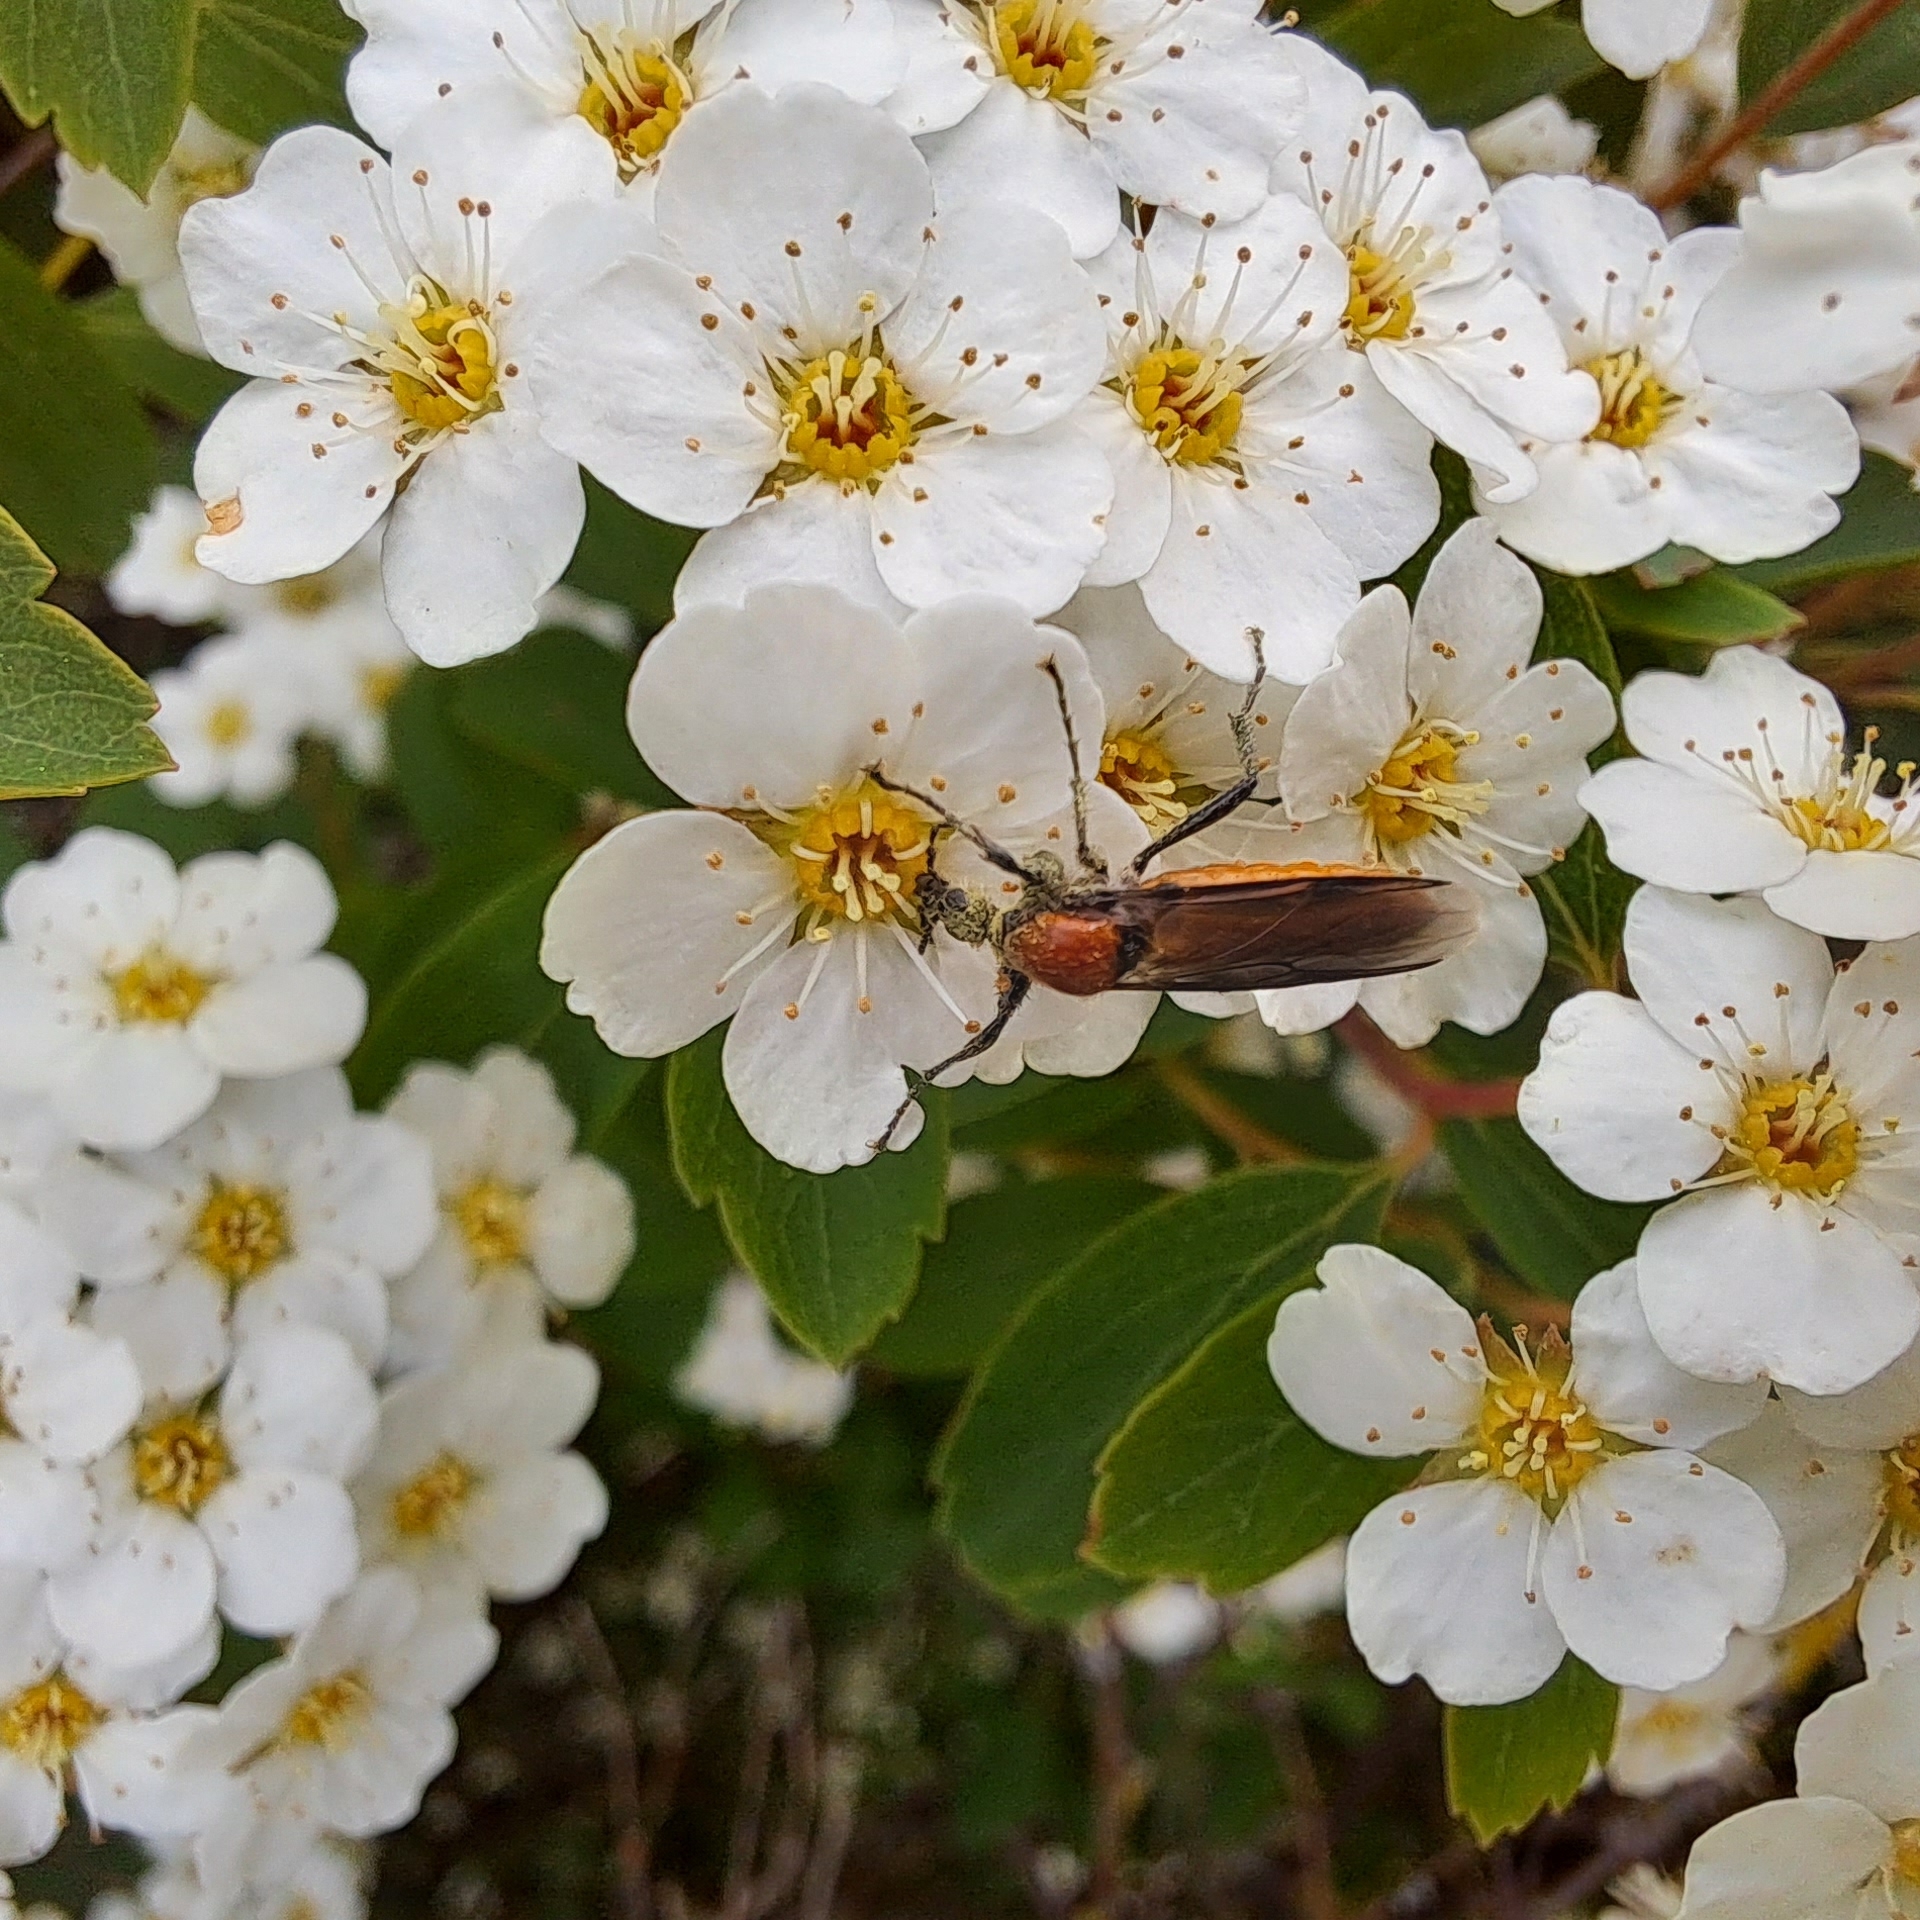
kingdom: Animalia
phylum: Arthropoda
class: Insecta
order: Diptera
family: Bibionidae
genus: Bibio
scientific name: Bibio hortulanus
